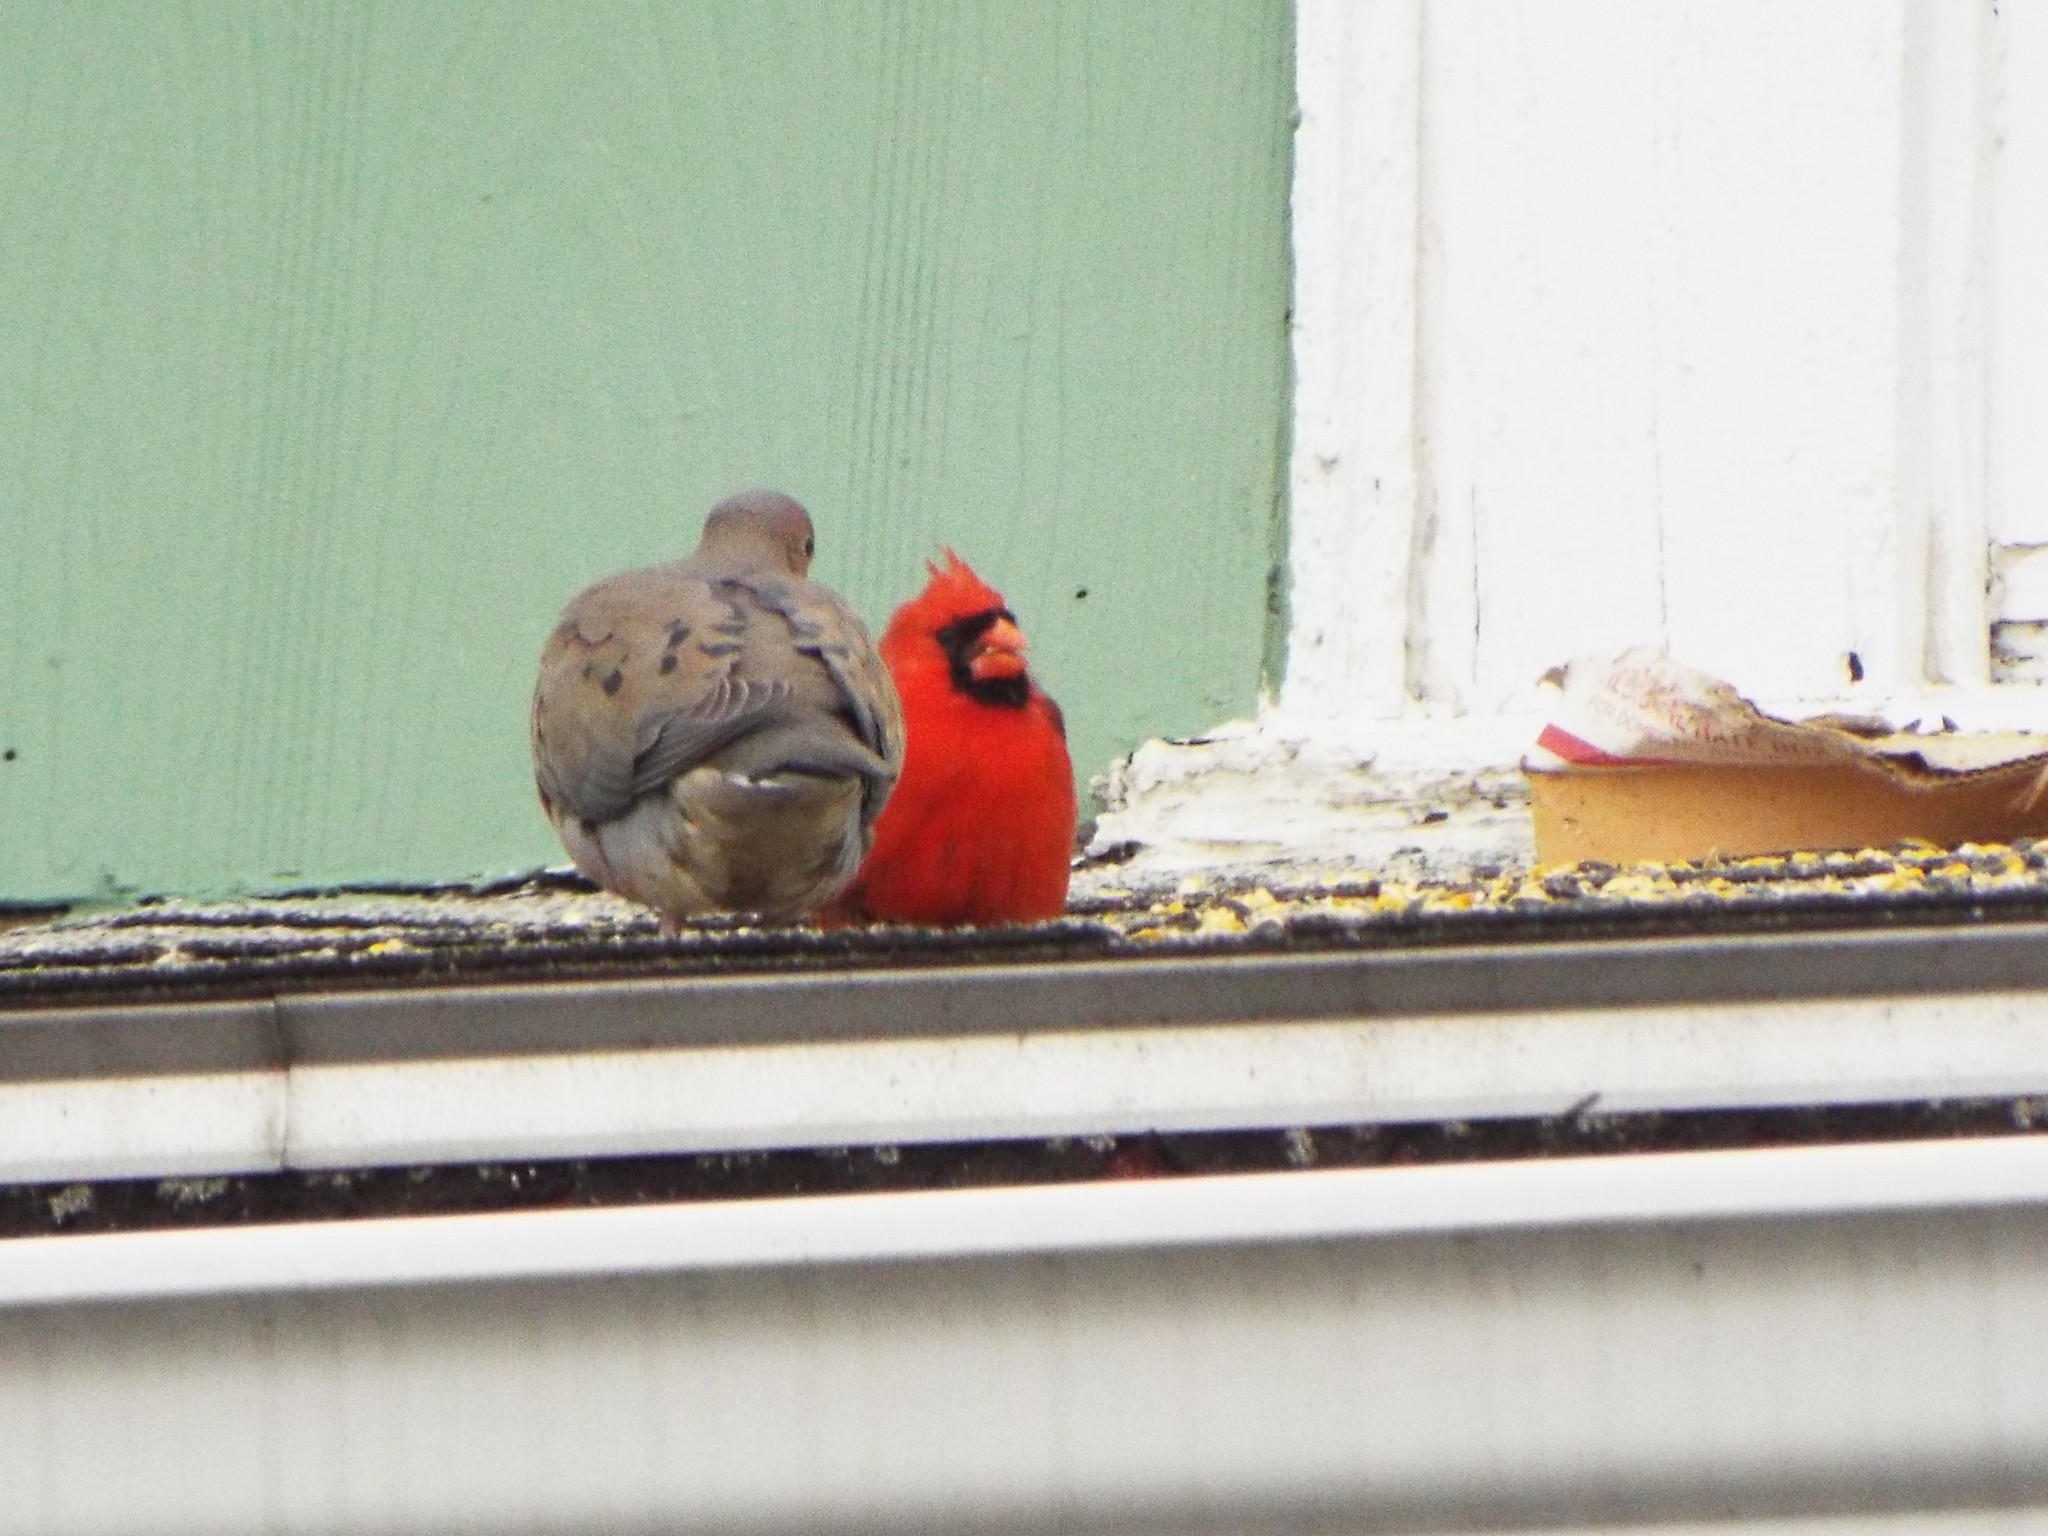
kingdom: Animalia
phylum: Chordata
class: Aves
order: Passeriformes
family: Cardinalidae
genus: Cardinalis
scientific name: Cardinalis cardinalis
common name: Northern cardinal
